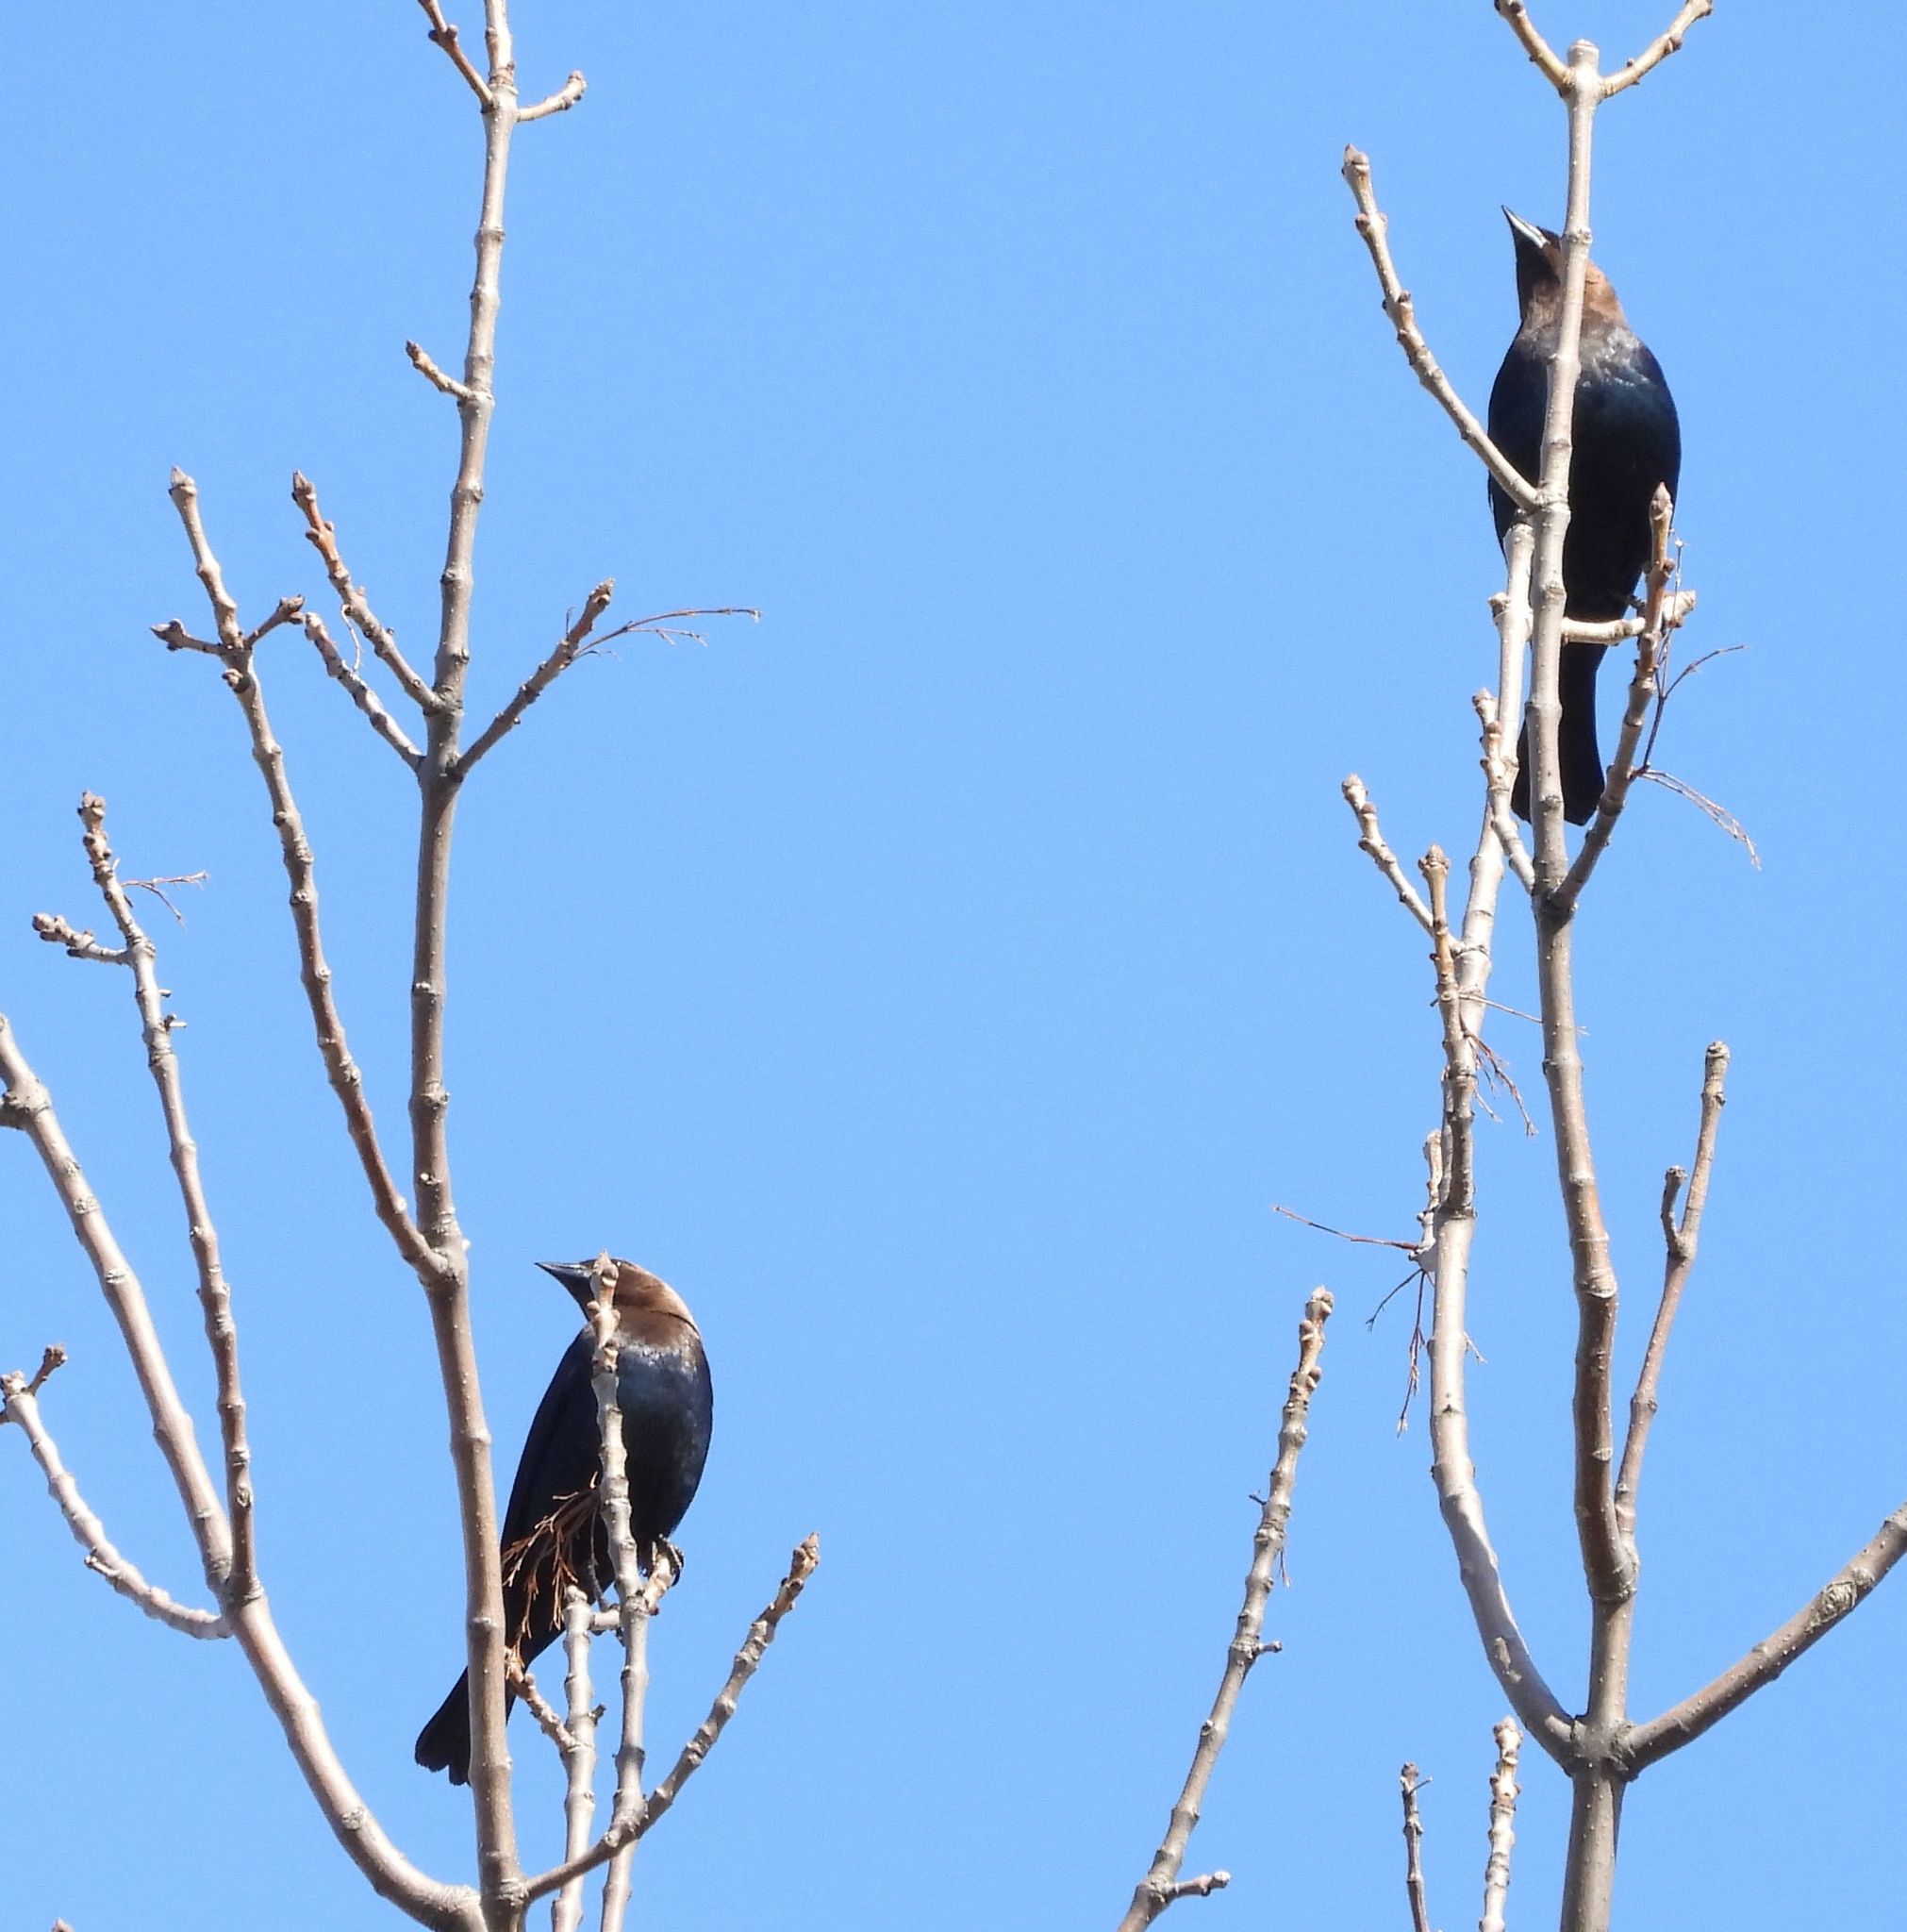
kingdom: Animalia
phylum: Chordata
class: Aves
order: Passeriformes
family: Icteridae
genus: Molothrus
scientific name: Molothrus ater
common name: Brown-headed cowbird
